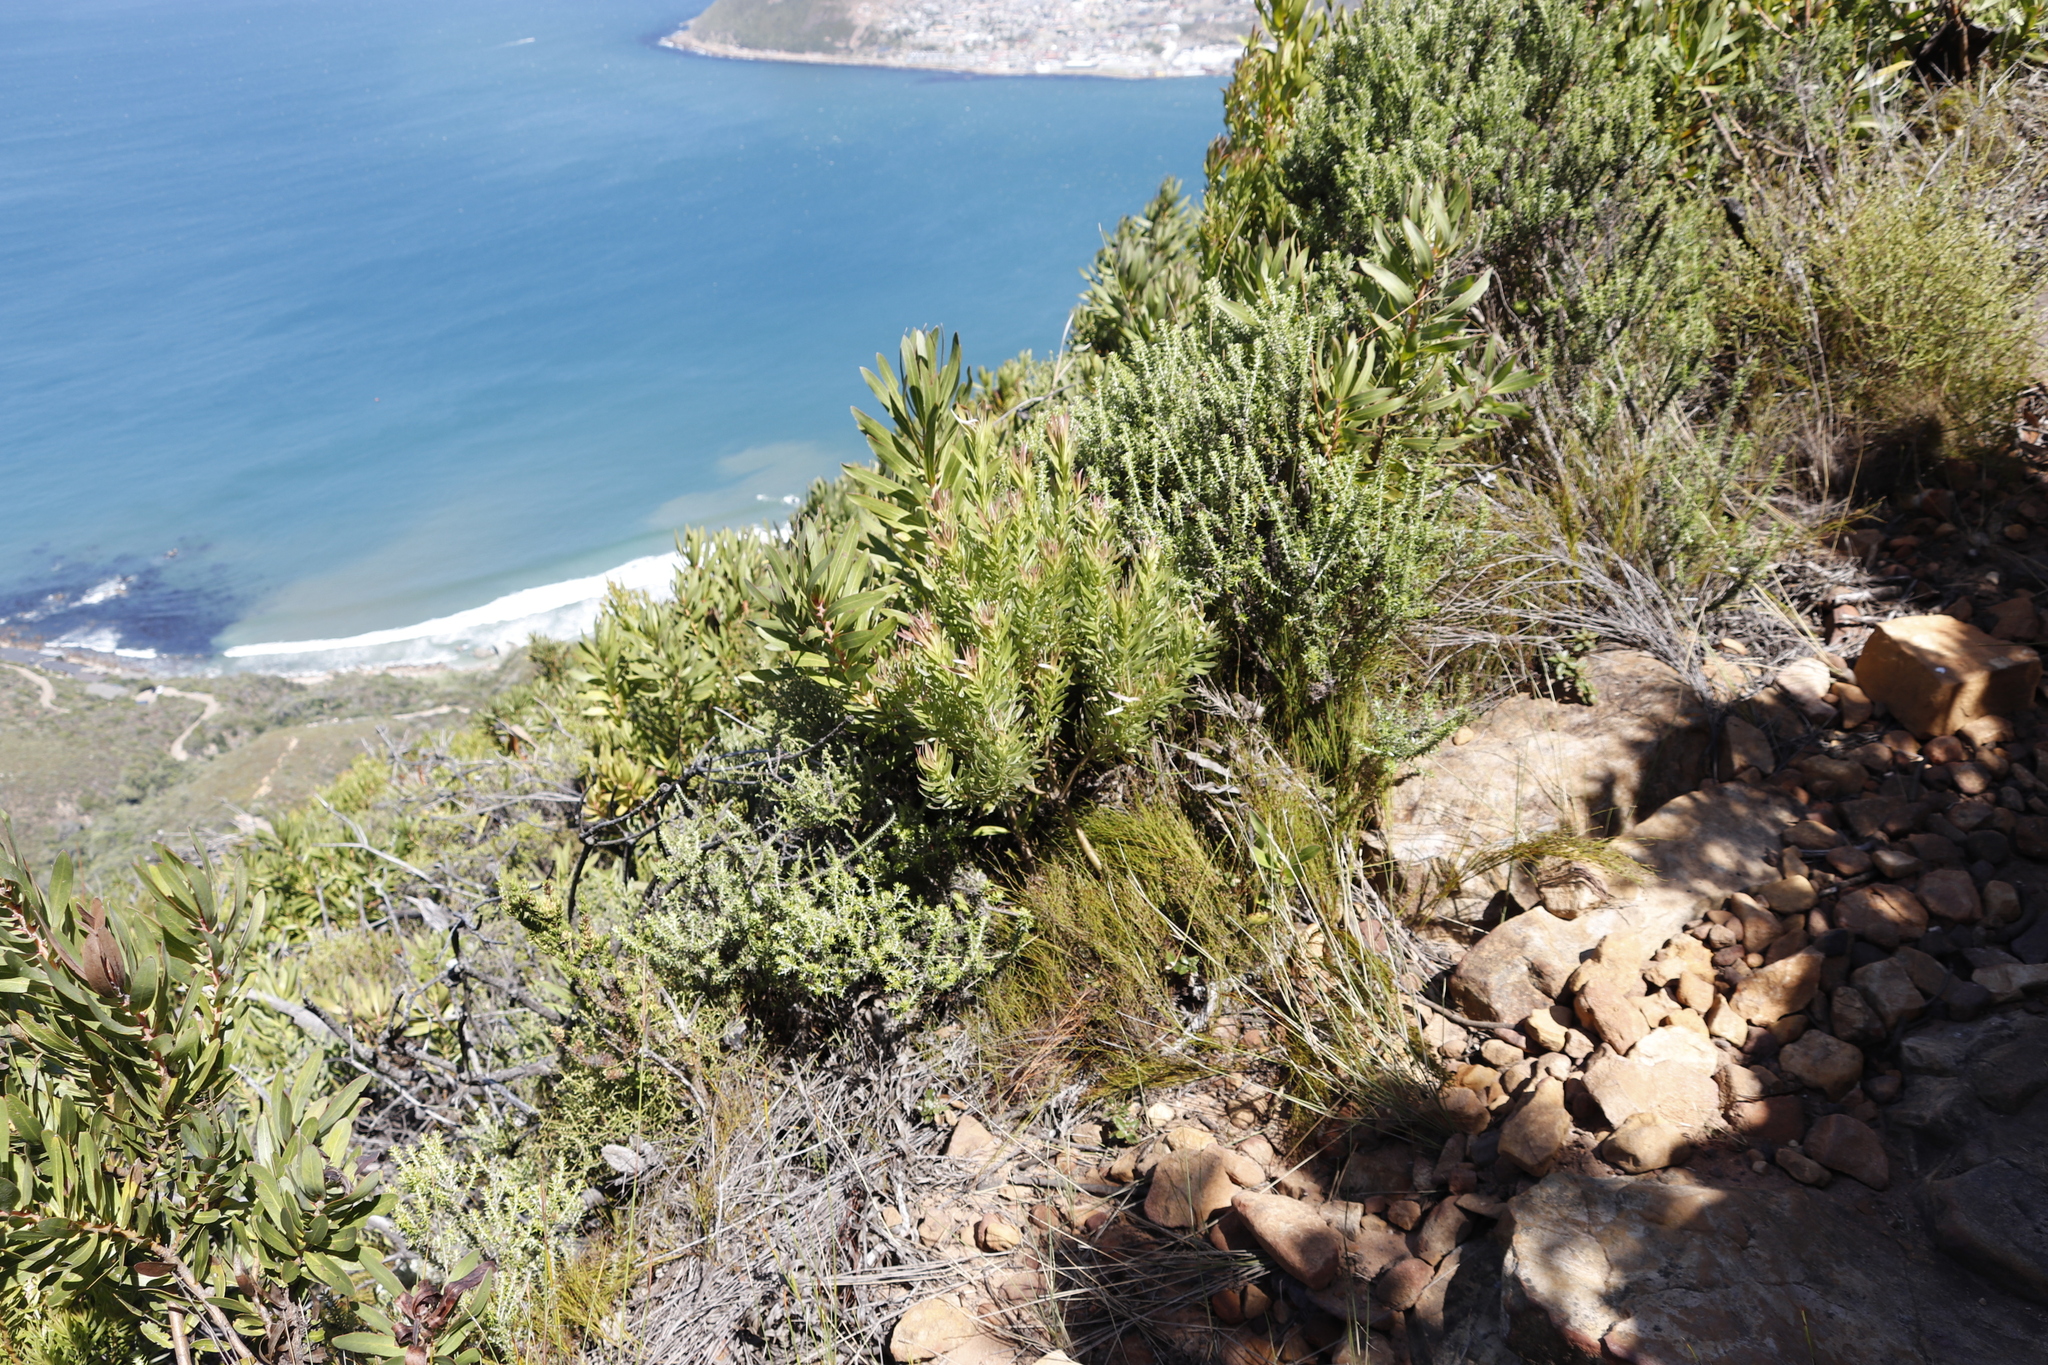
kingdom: Plantae
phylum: Tracheophyta
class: Magnoliopsida
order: Proteales
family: Proteaceae
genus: Leucadendron
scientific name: Leucadendron xanthoconus
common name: Sickle-leaf conebush
